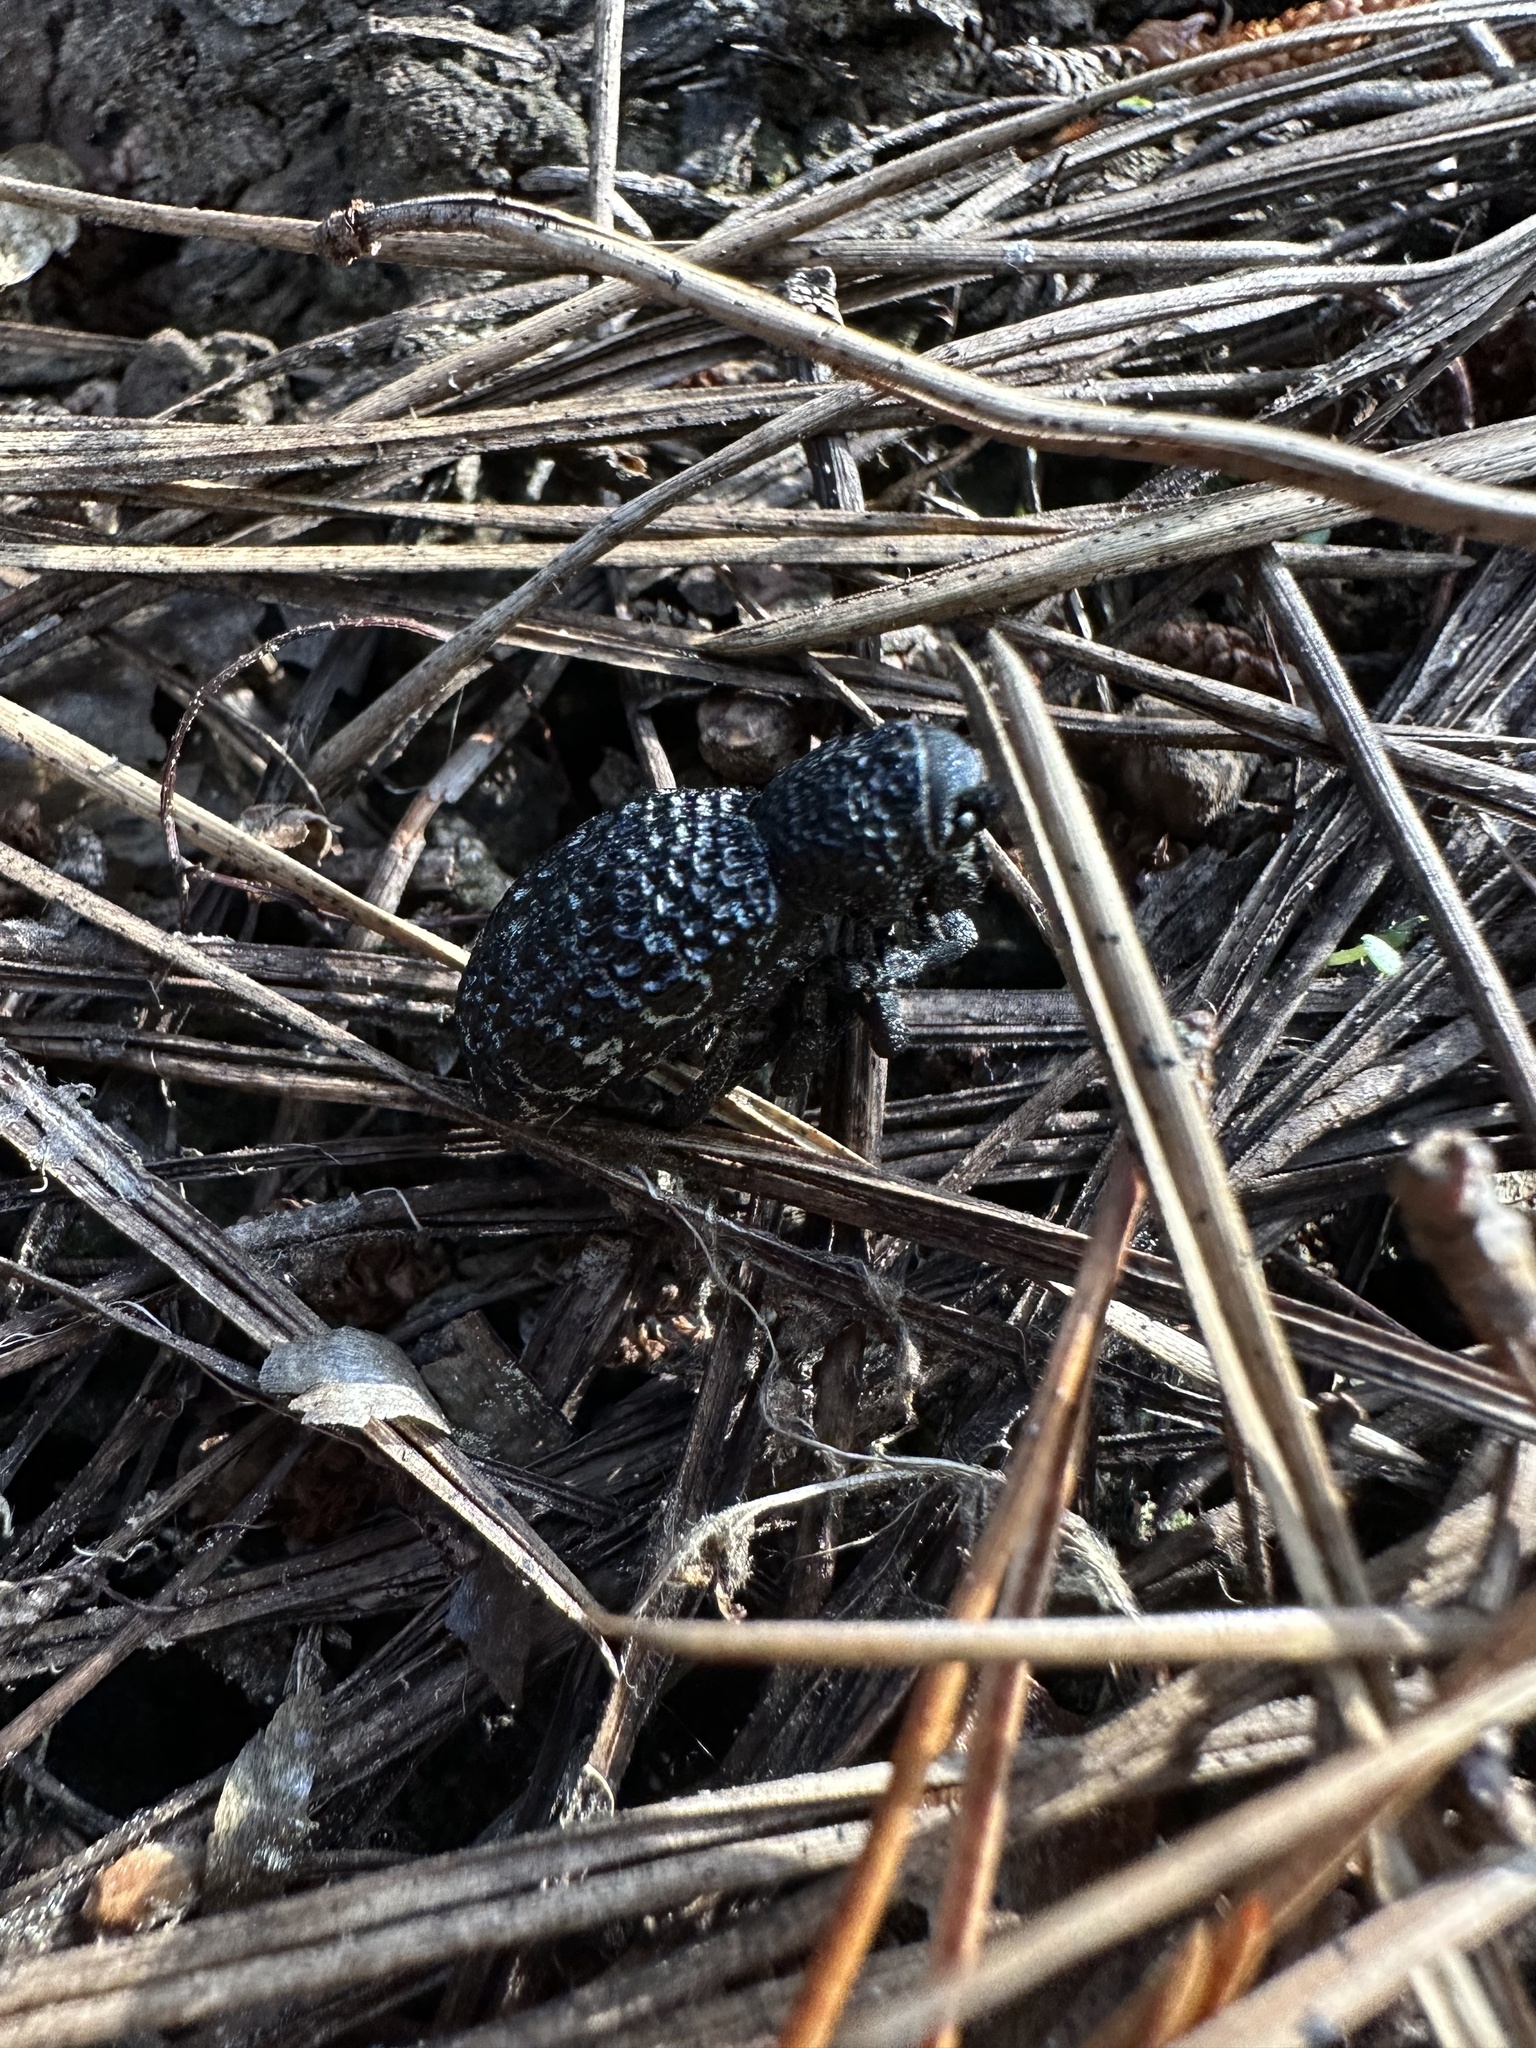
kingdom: Animalia
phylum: Arthropoda
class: Insecta
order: Coleoptera
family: Curculionidae
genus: Aegorhinus
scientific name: Aegorhinus superciliosus
